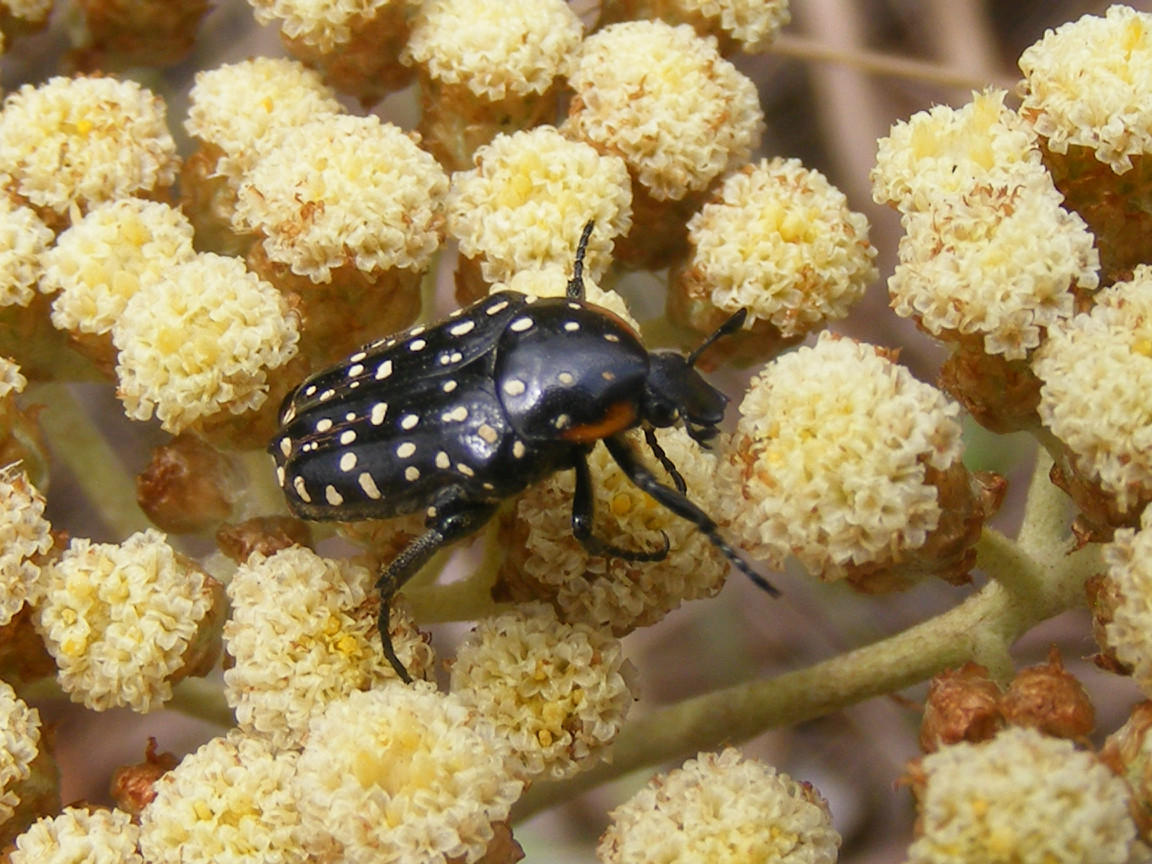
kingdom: Animalia
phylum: Arthropoda
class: Insecta
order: Coleoptera
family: Scarabaeidae
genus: Oxythyrea
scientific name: Oxythyrea
